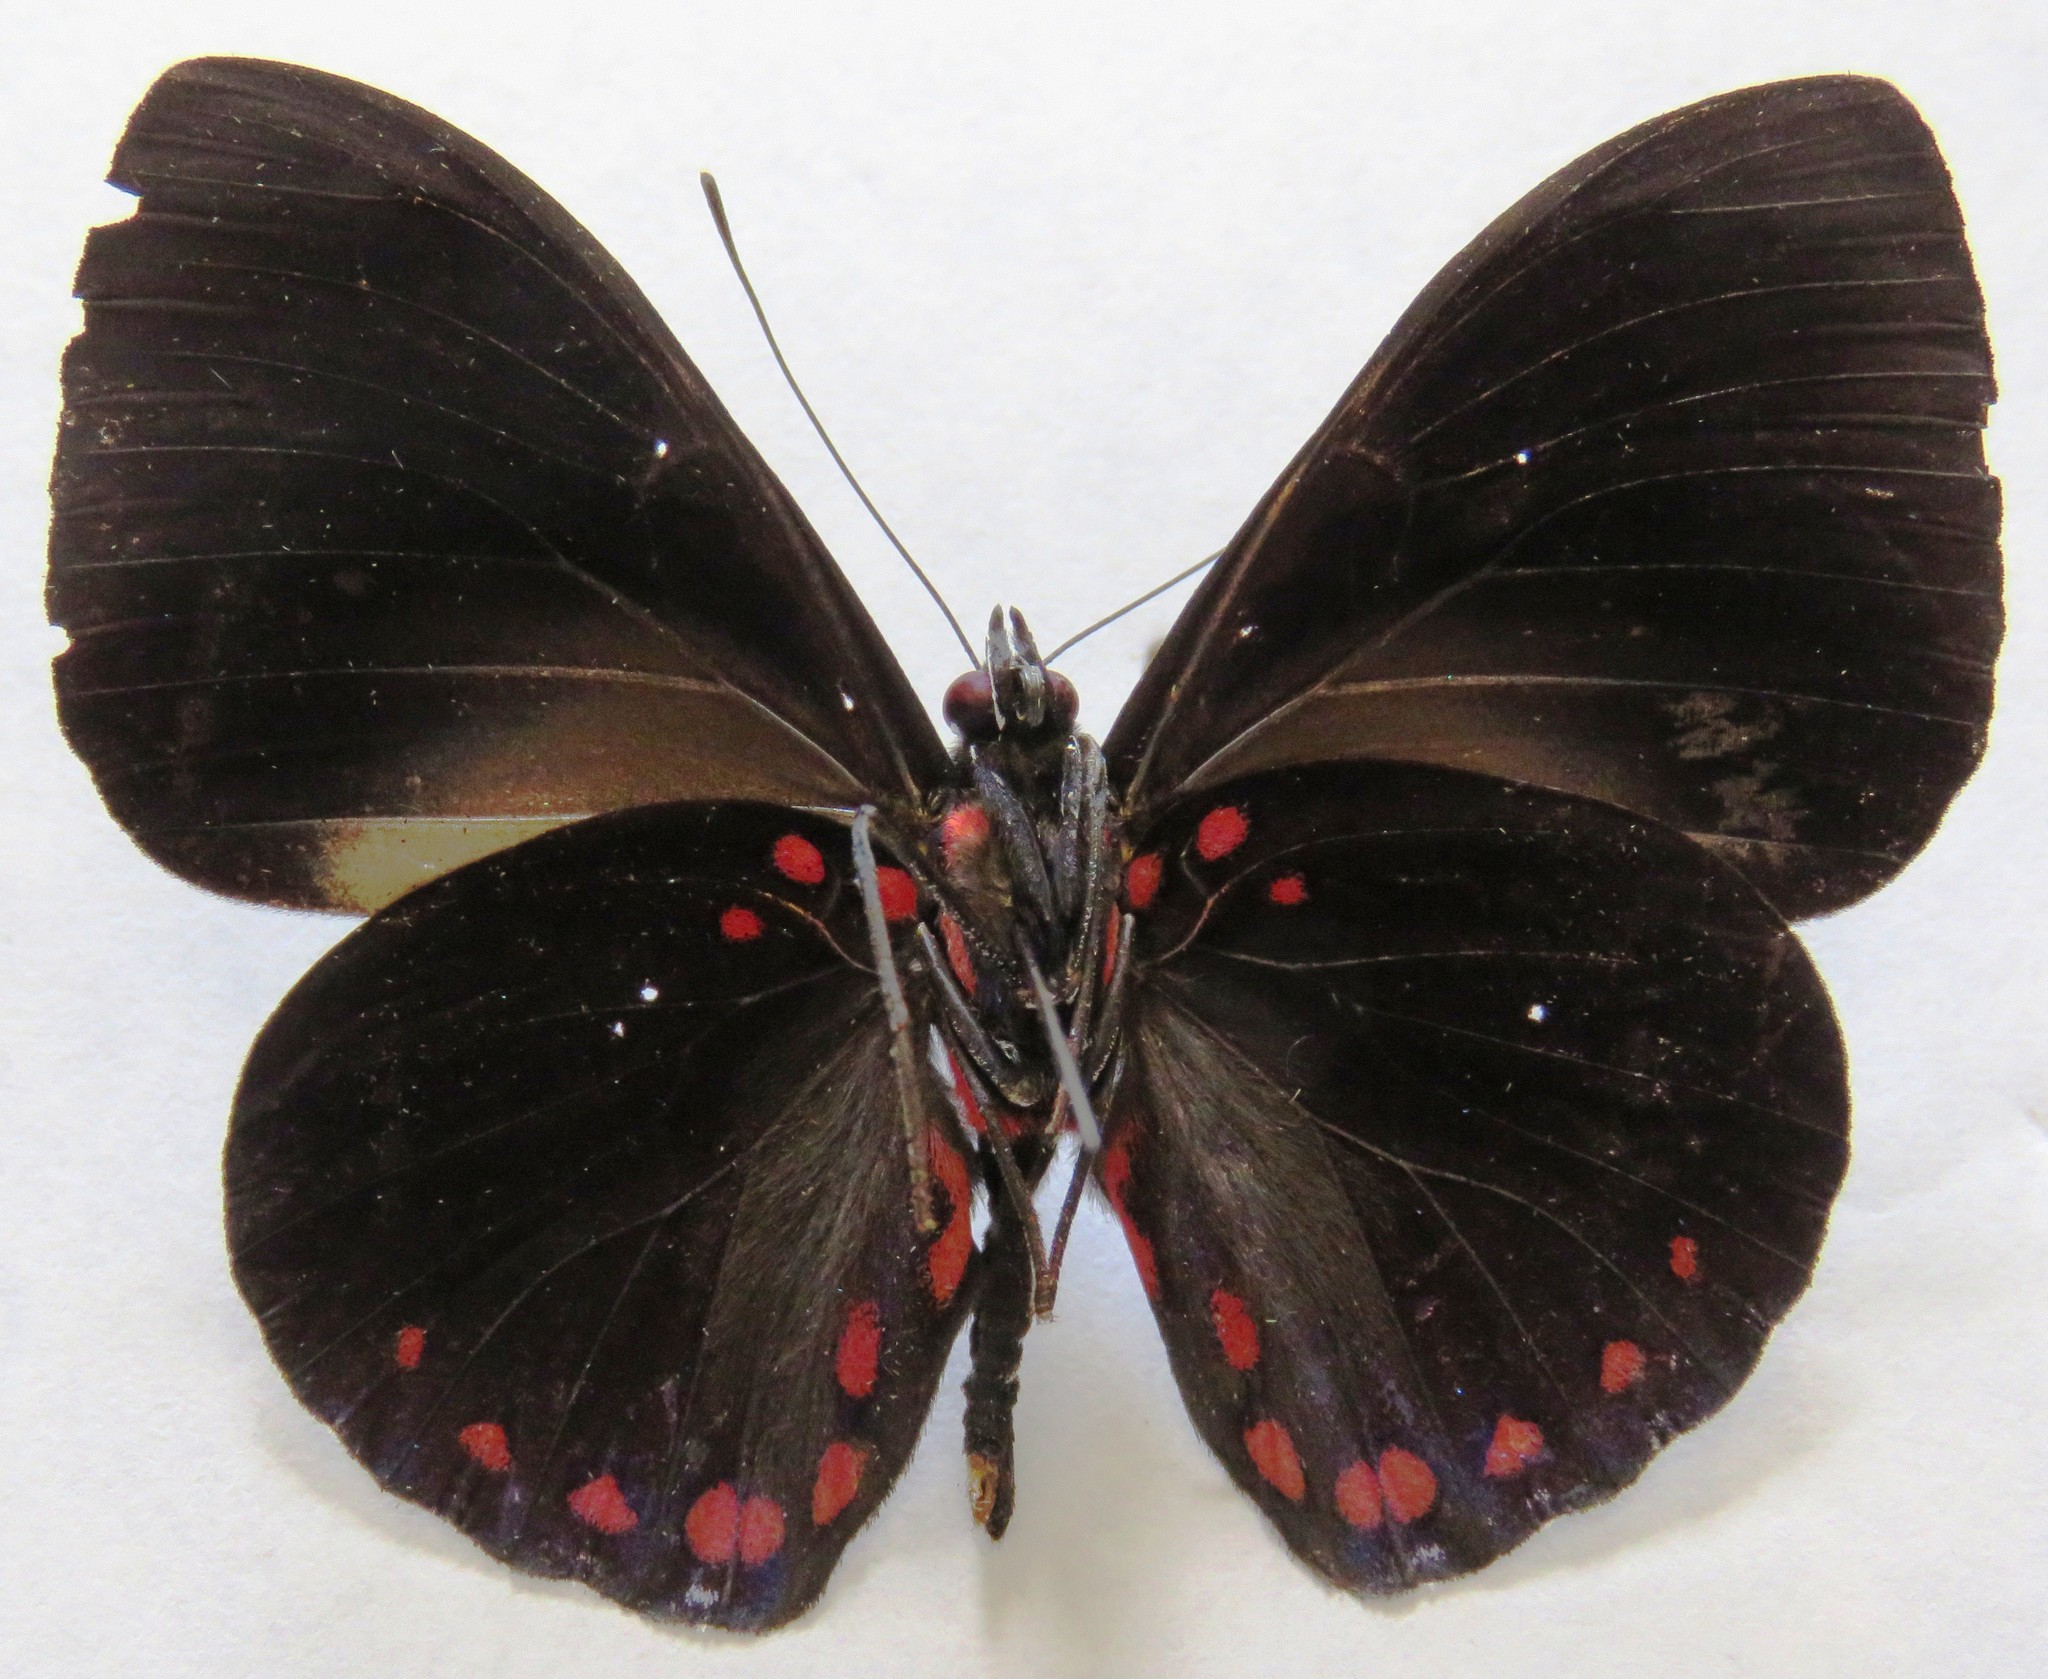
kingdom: Animalia
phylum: Arthropoda
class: Insecta
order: Lepidoptera
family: Nymphalidae
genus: Hamadryas
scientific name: Hamadryas arethusa
